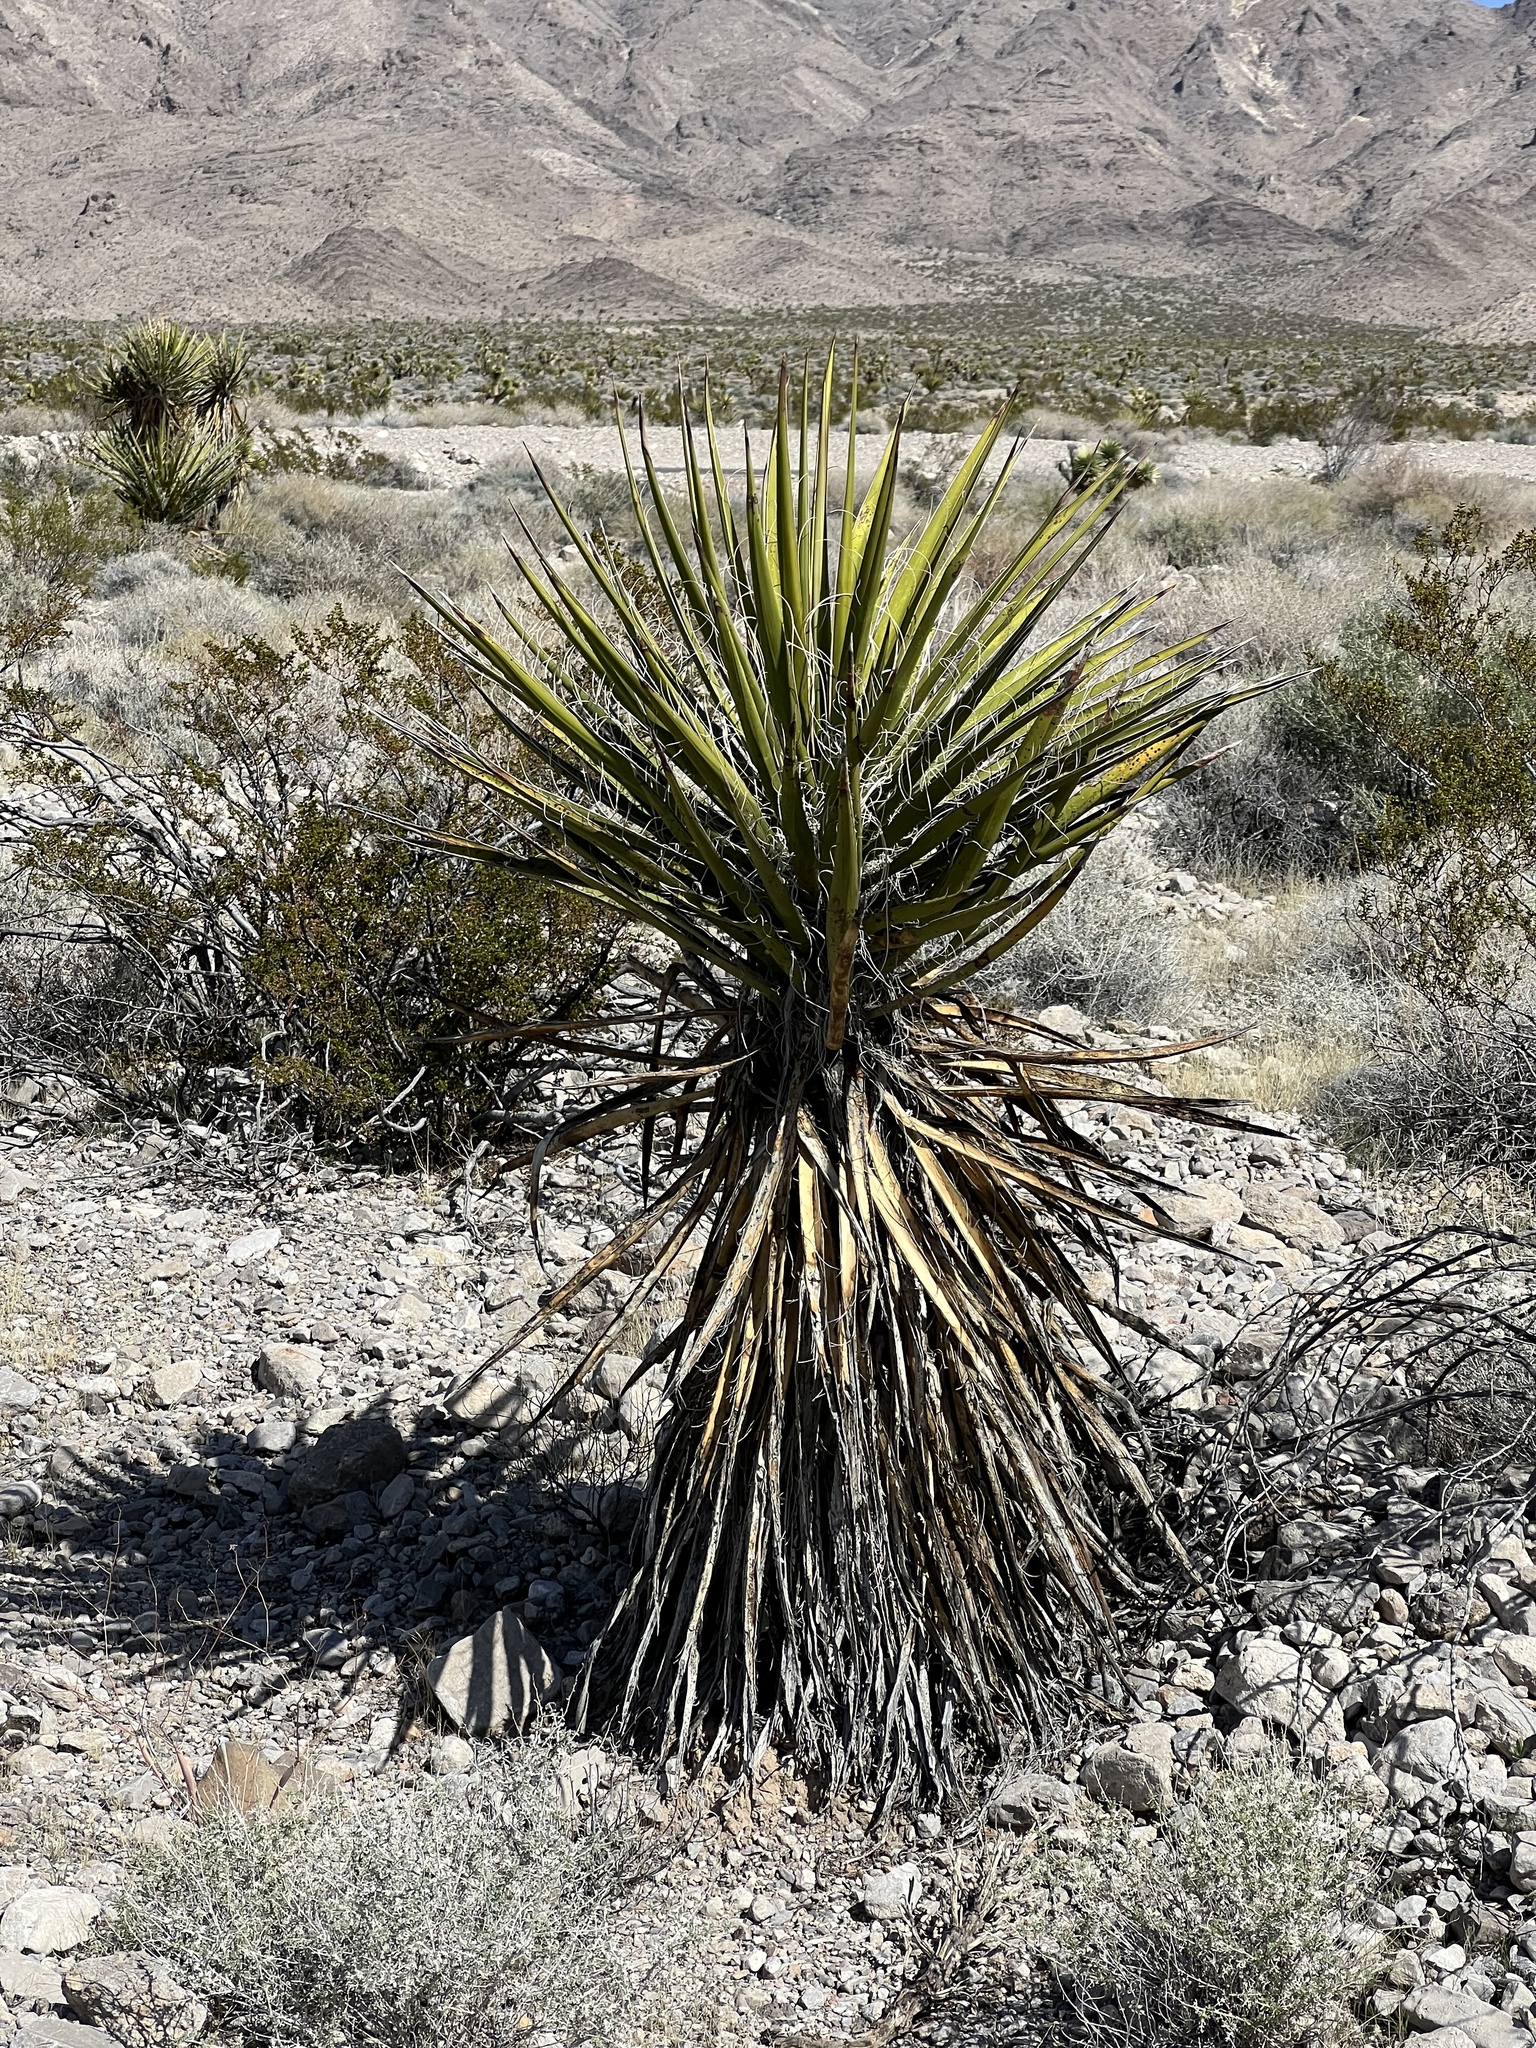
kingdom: Plantae
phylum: Tracheophyta
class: Liliopsida
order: Asparagales
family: Asparagaceae
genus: Yucca
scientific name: Yucca schidigera
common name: Mojave yucca
